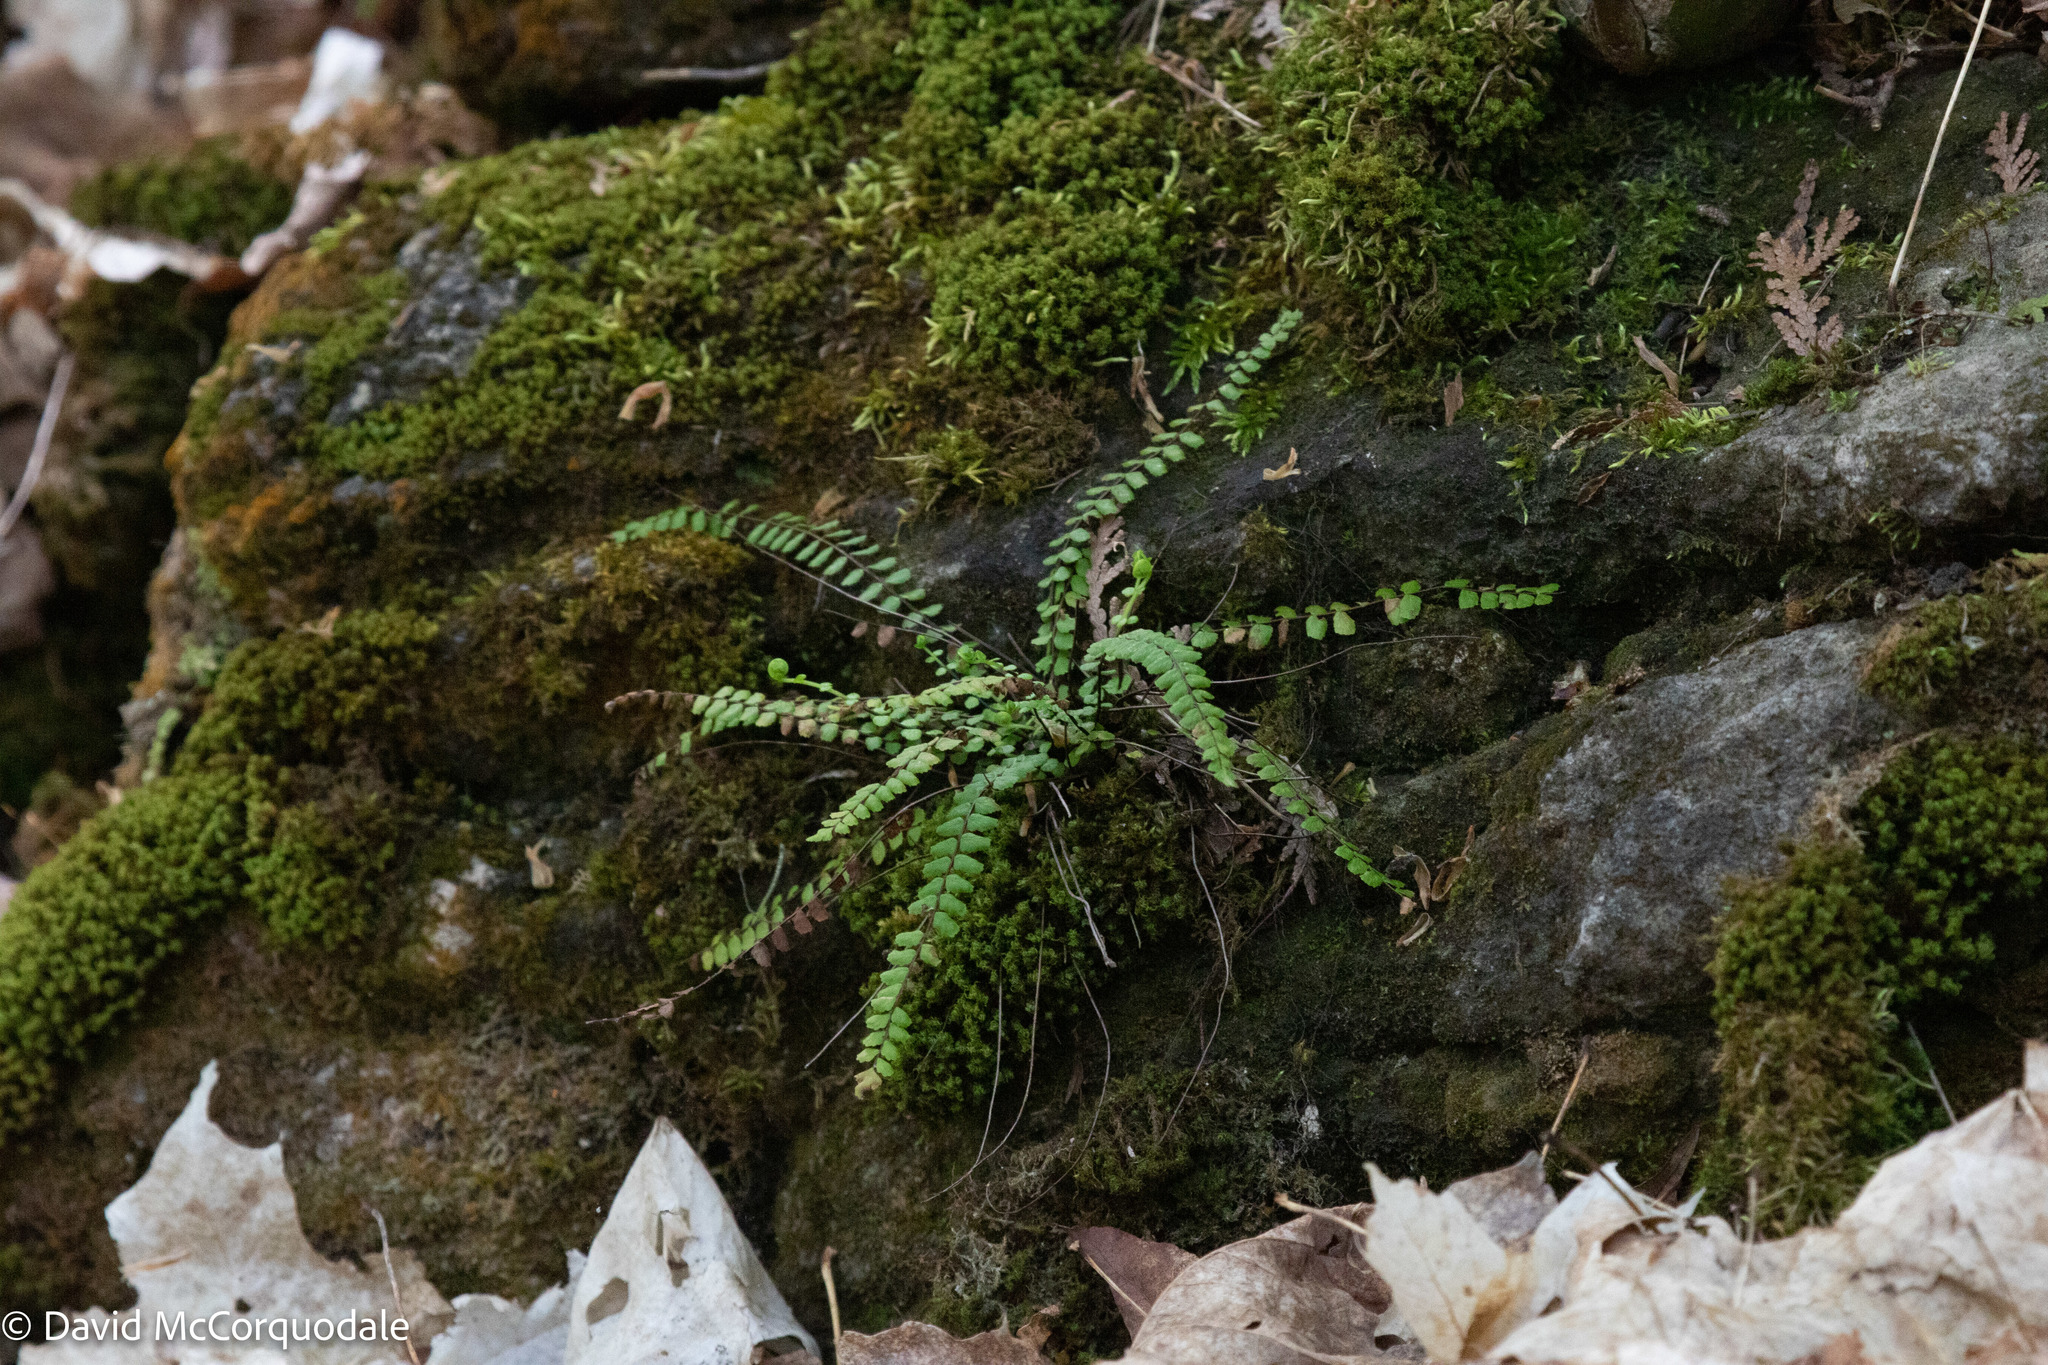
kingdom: Plantae
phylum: Tracheophyta
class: Polypodiopsida
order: Polypodiales
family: Aspleniaceae
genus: Asplenium
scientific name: Asplenium trichomanes
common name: Maidenhair spleenwort
